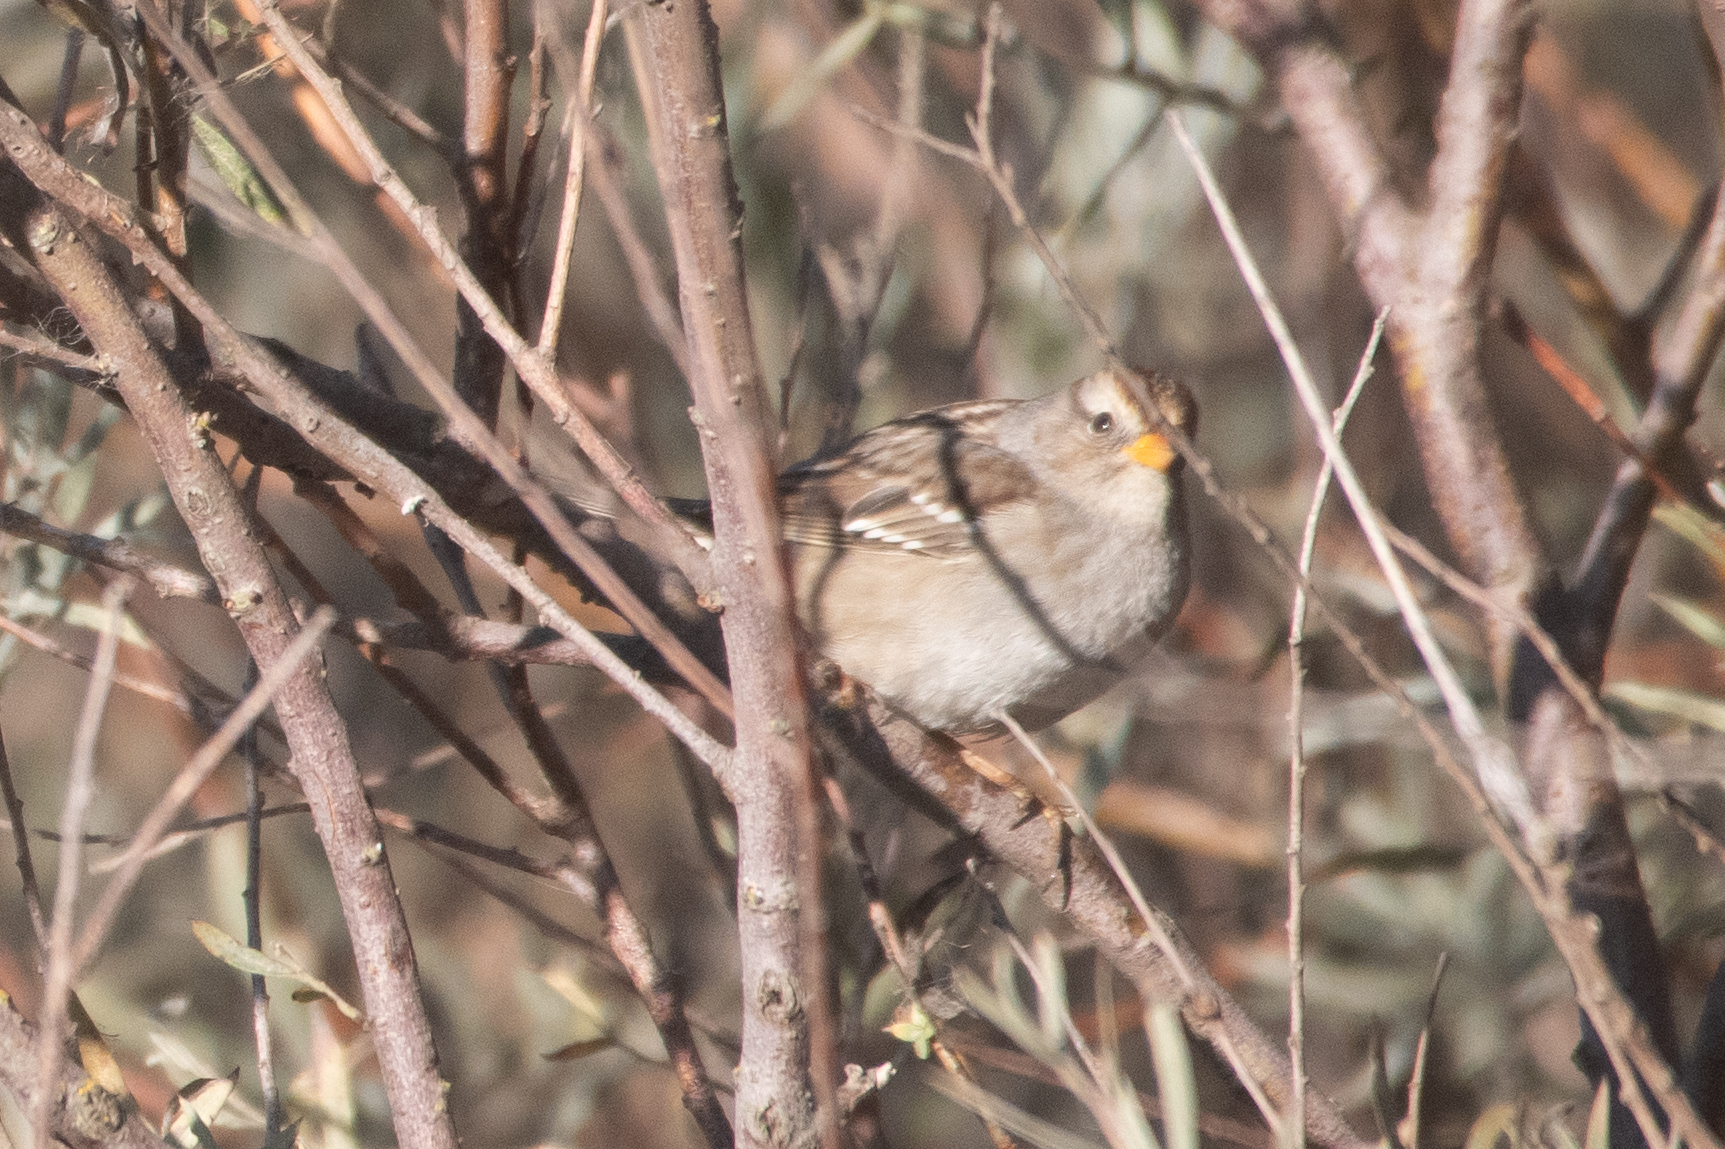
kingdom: Animalia
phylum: Chordata
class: Aves
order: Passeriformes
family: Passerellidae
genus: Zonotrichia
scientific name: Zonotrichia leucophrys
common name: White-crowned sparrow
